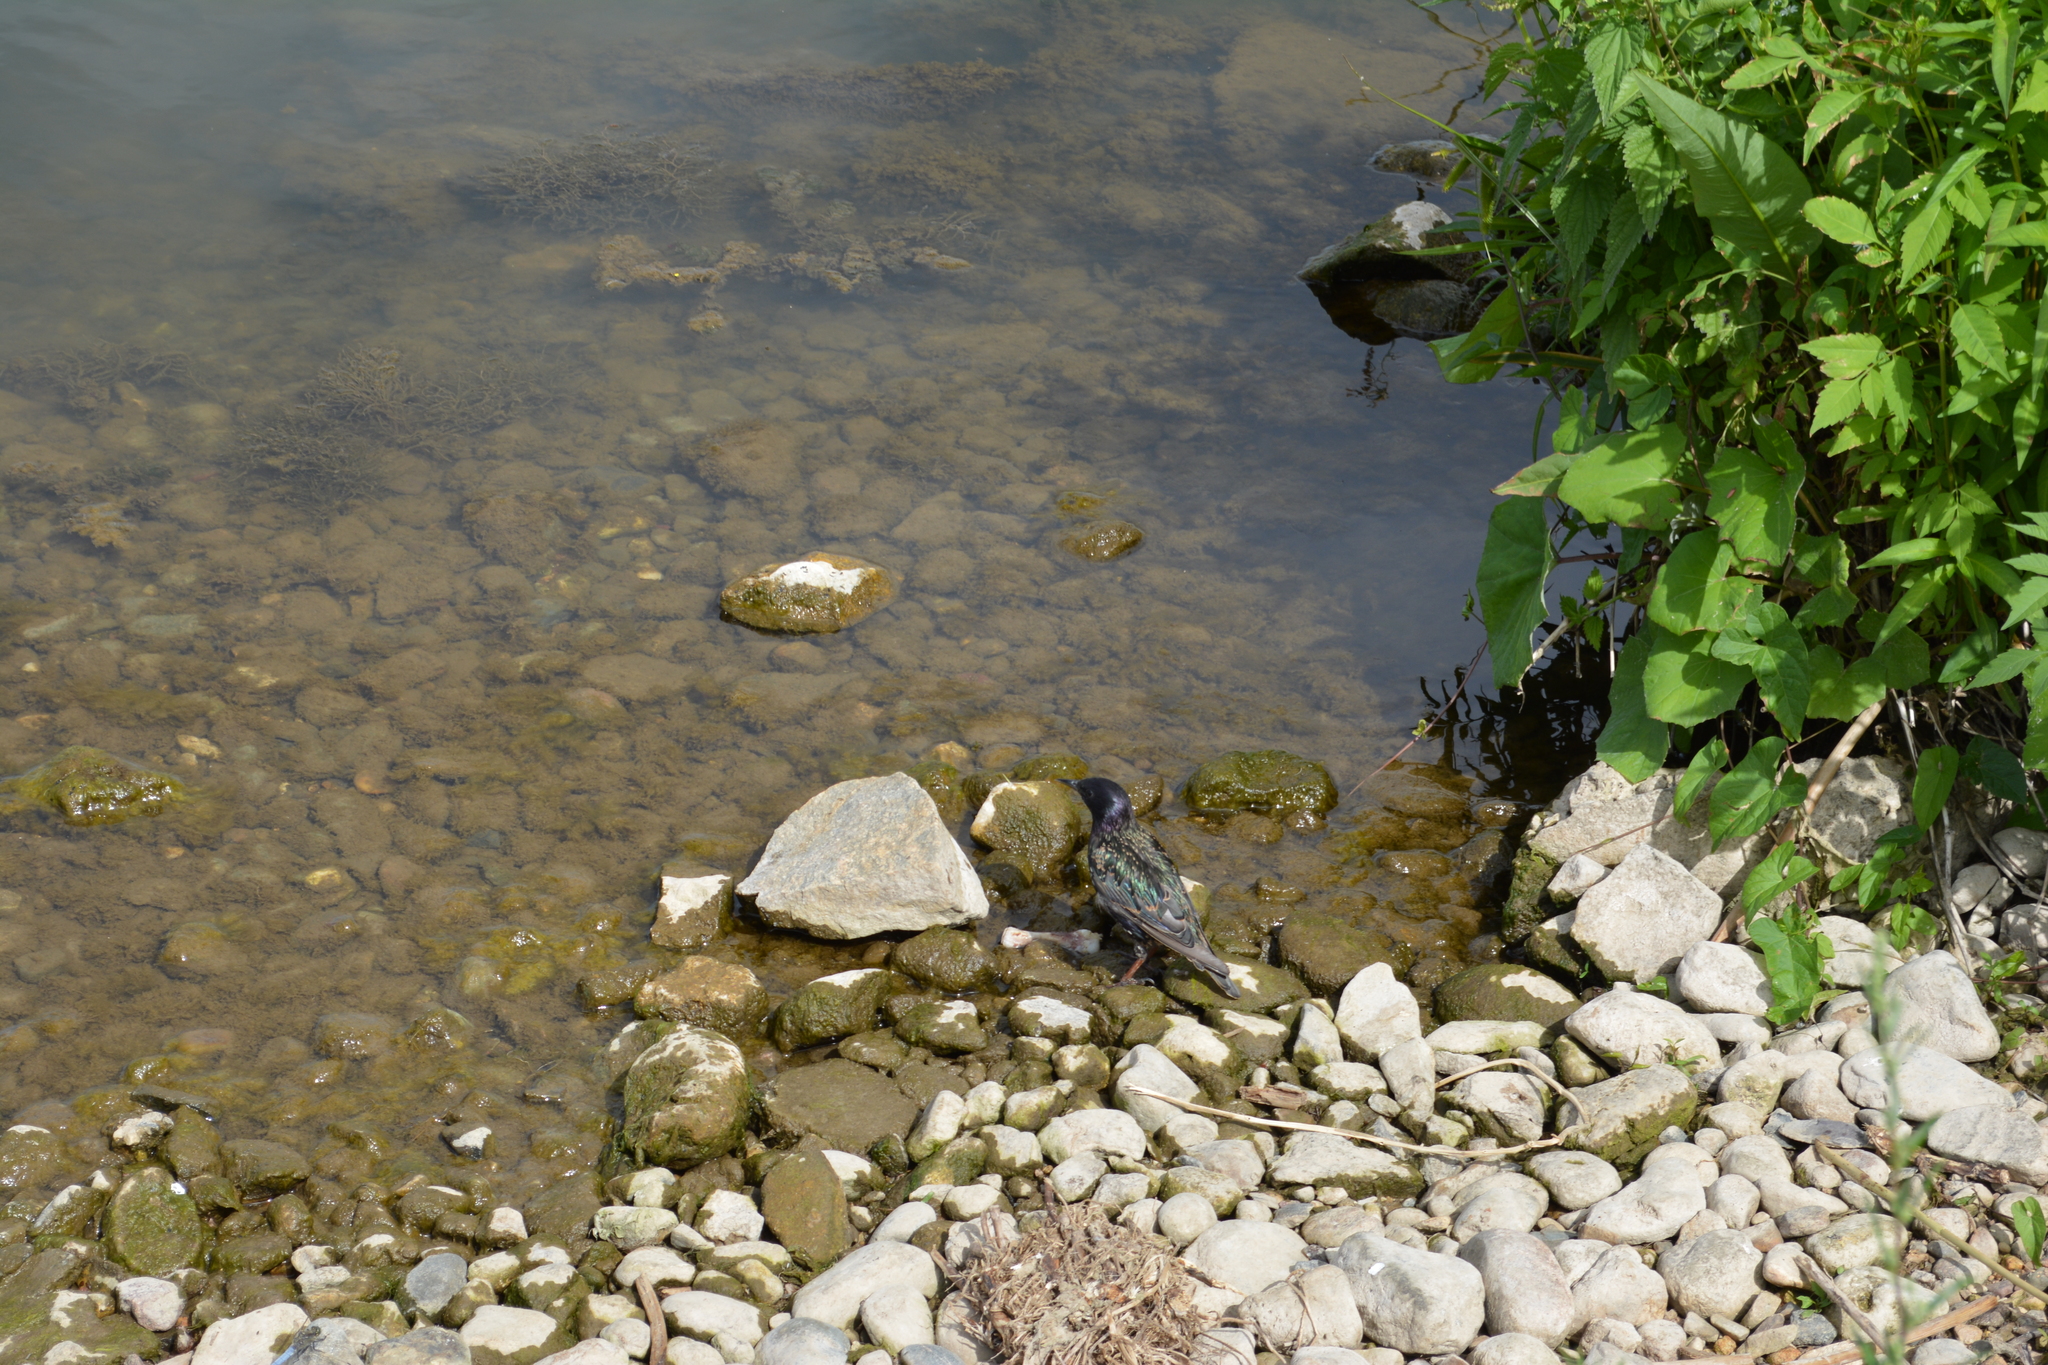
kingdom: Animalia
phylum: Chordata
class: Aves
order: Passeriformes
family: Sturnidae
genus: Sturnus
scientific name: Sturnus vulgaris
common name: Common starling
